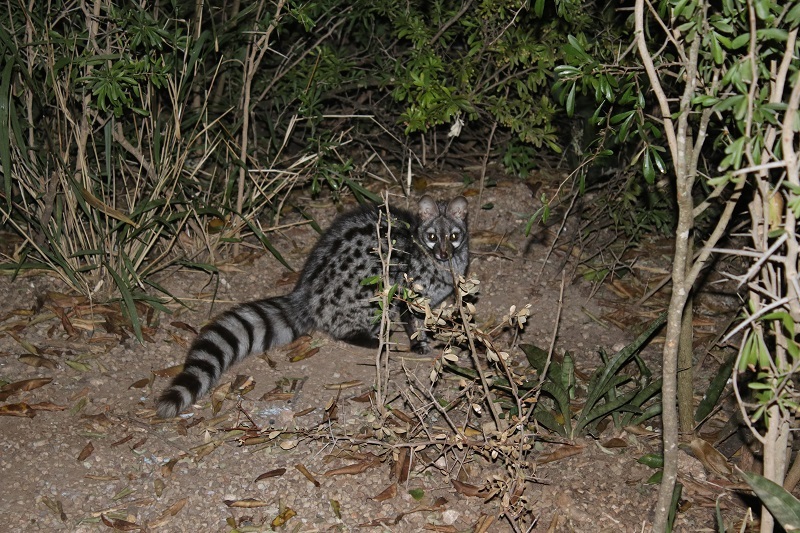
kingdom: Animalia
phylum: Chordata
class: Mammalia
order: Carnivora
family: Viverridae
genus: Genetta
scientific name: Genetta genetta
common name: Common genet
